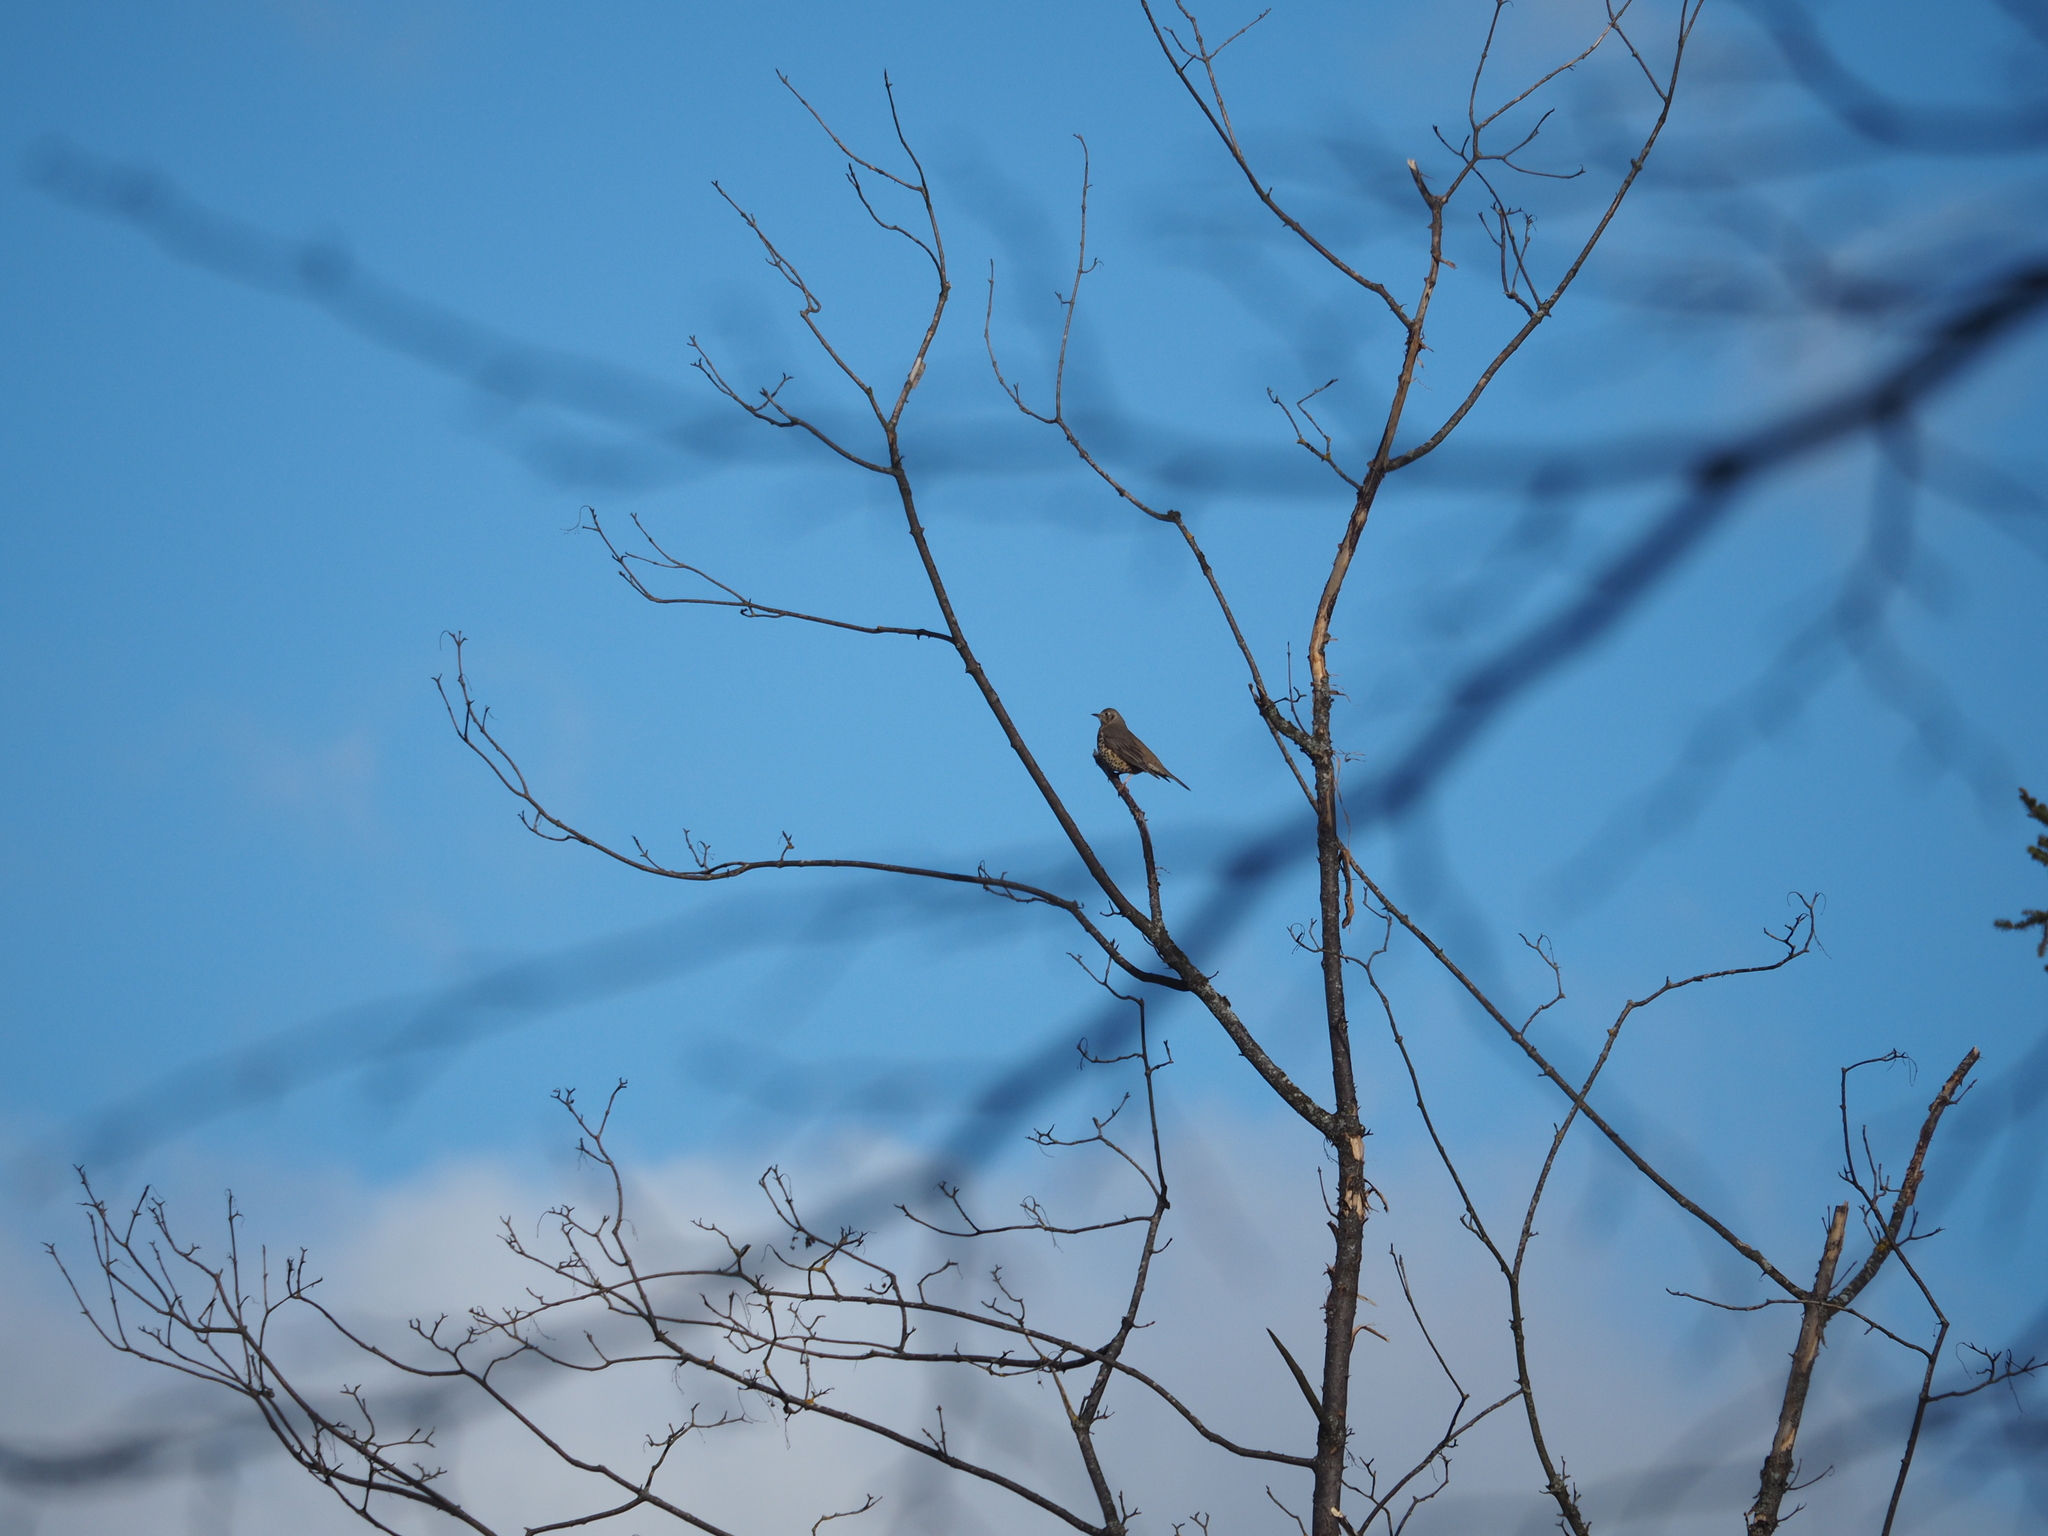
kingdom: Animalia
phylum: Chordata
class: Aves
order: Passeriformes
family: Turdidae
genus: Turdus
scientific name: Turdus viscivorus
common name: Mistle thrush
